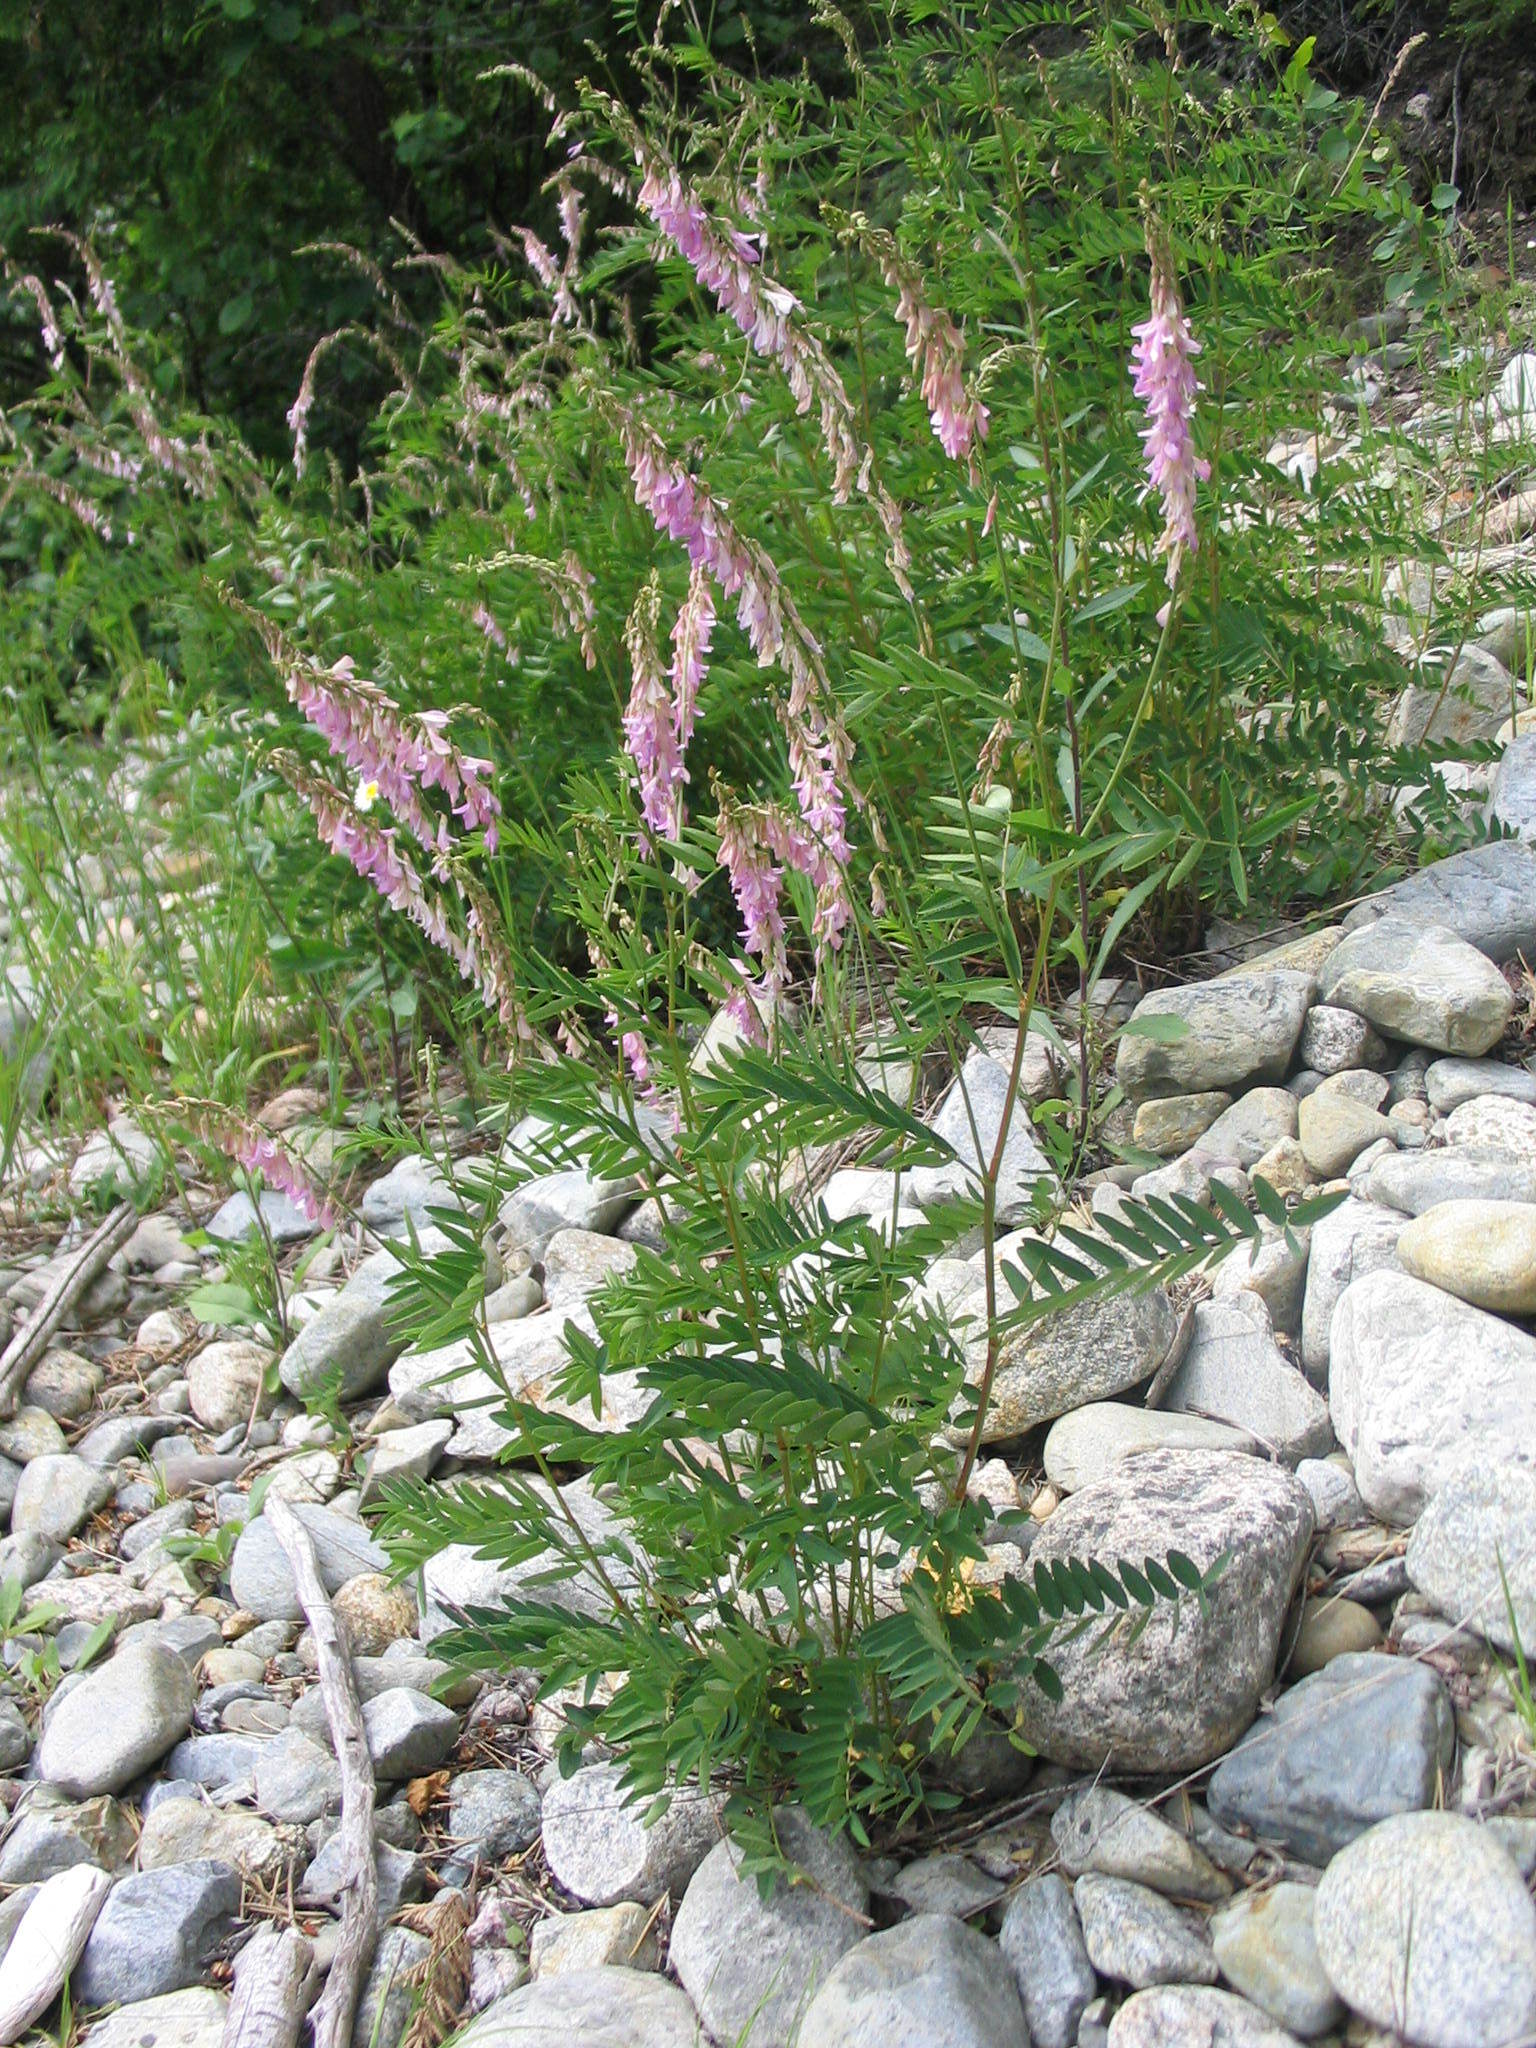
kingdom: Plantae
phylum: Tracheophyta
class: Magnoliopsida
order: Fabales
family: Fabaceae
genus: Hedysarum
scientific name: Hedysarum alpinum
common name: Alpine sweet-vetch
